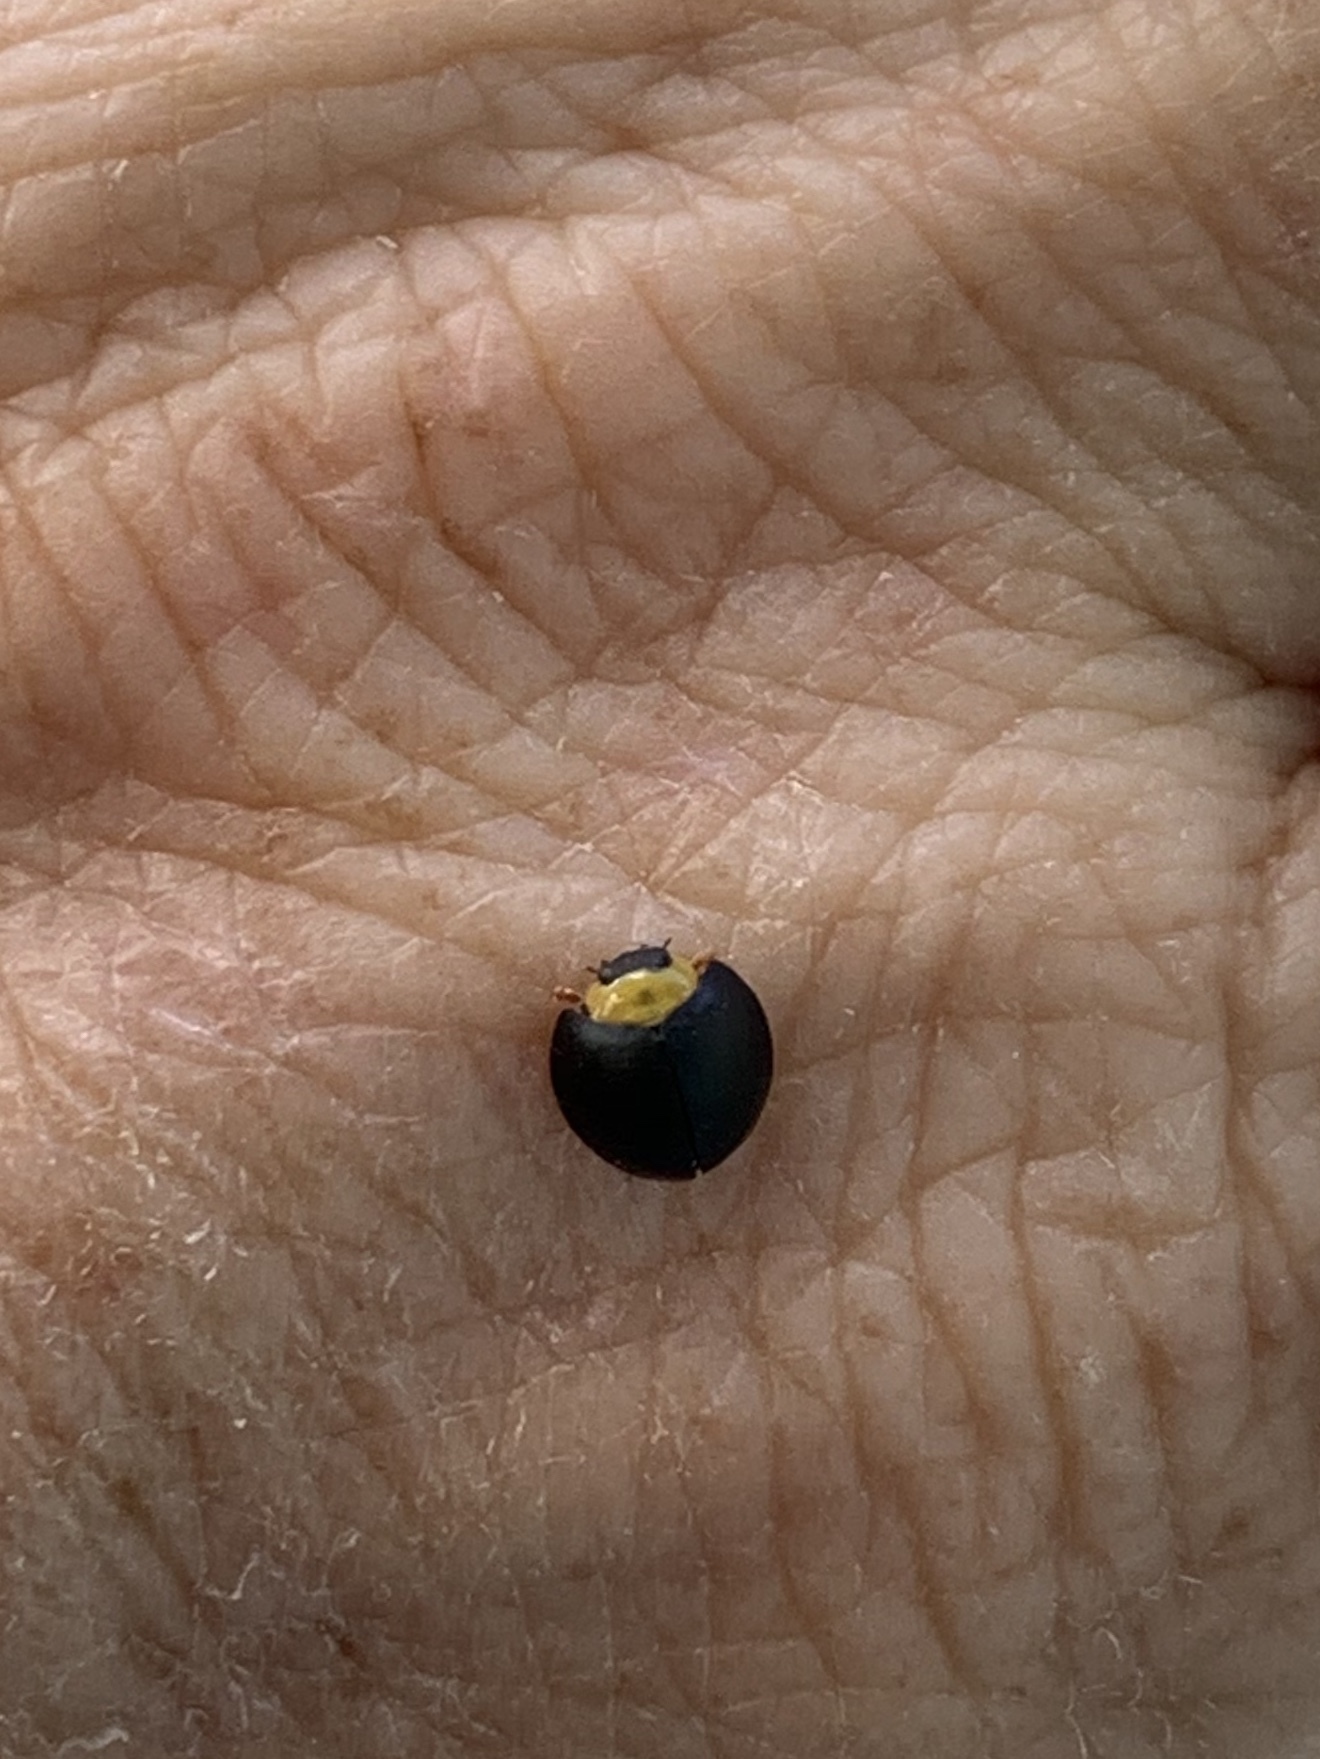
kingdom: Animalia
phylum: Arthropoda
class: Insecta
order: Coleoptera
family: Coccinellidae
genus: Egius
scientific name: Egius platycephalus
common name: Ladybird beetle
